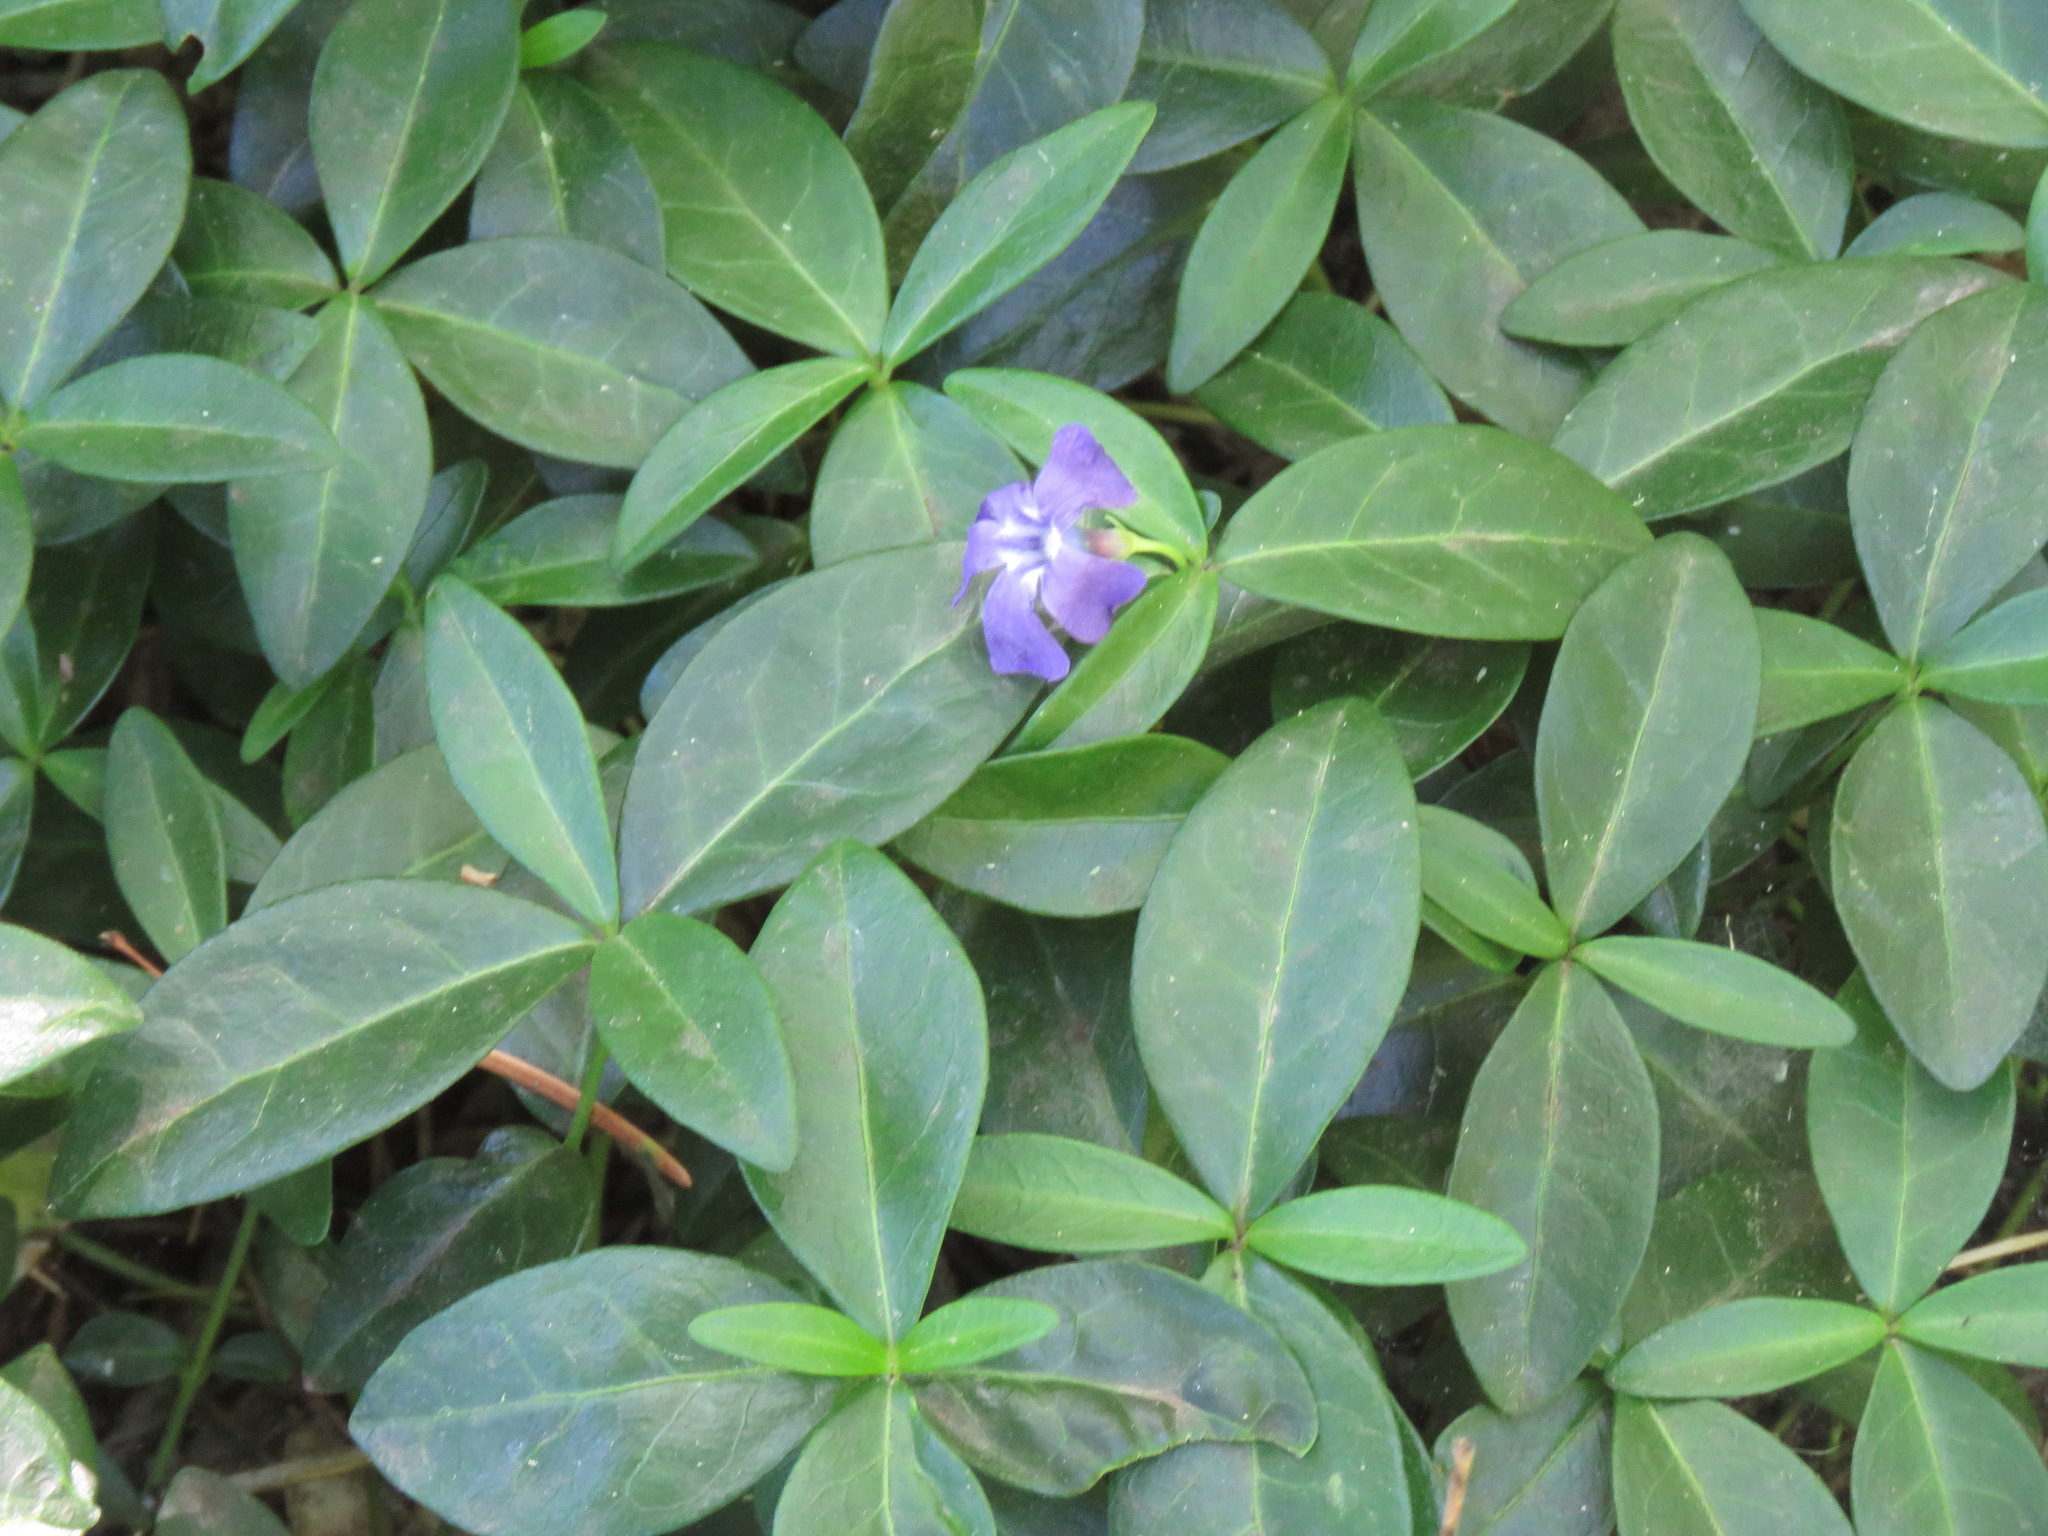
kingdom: Plantae
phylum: Tracheophyta
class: Magnoliopsida
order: Gentianales
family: Apocynaceae
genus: Vinca
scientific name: Vinca minor
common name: Lesser periwinkle
